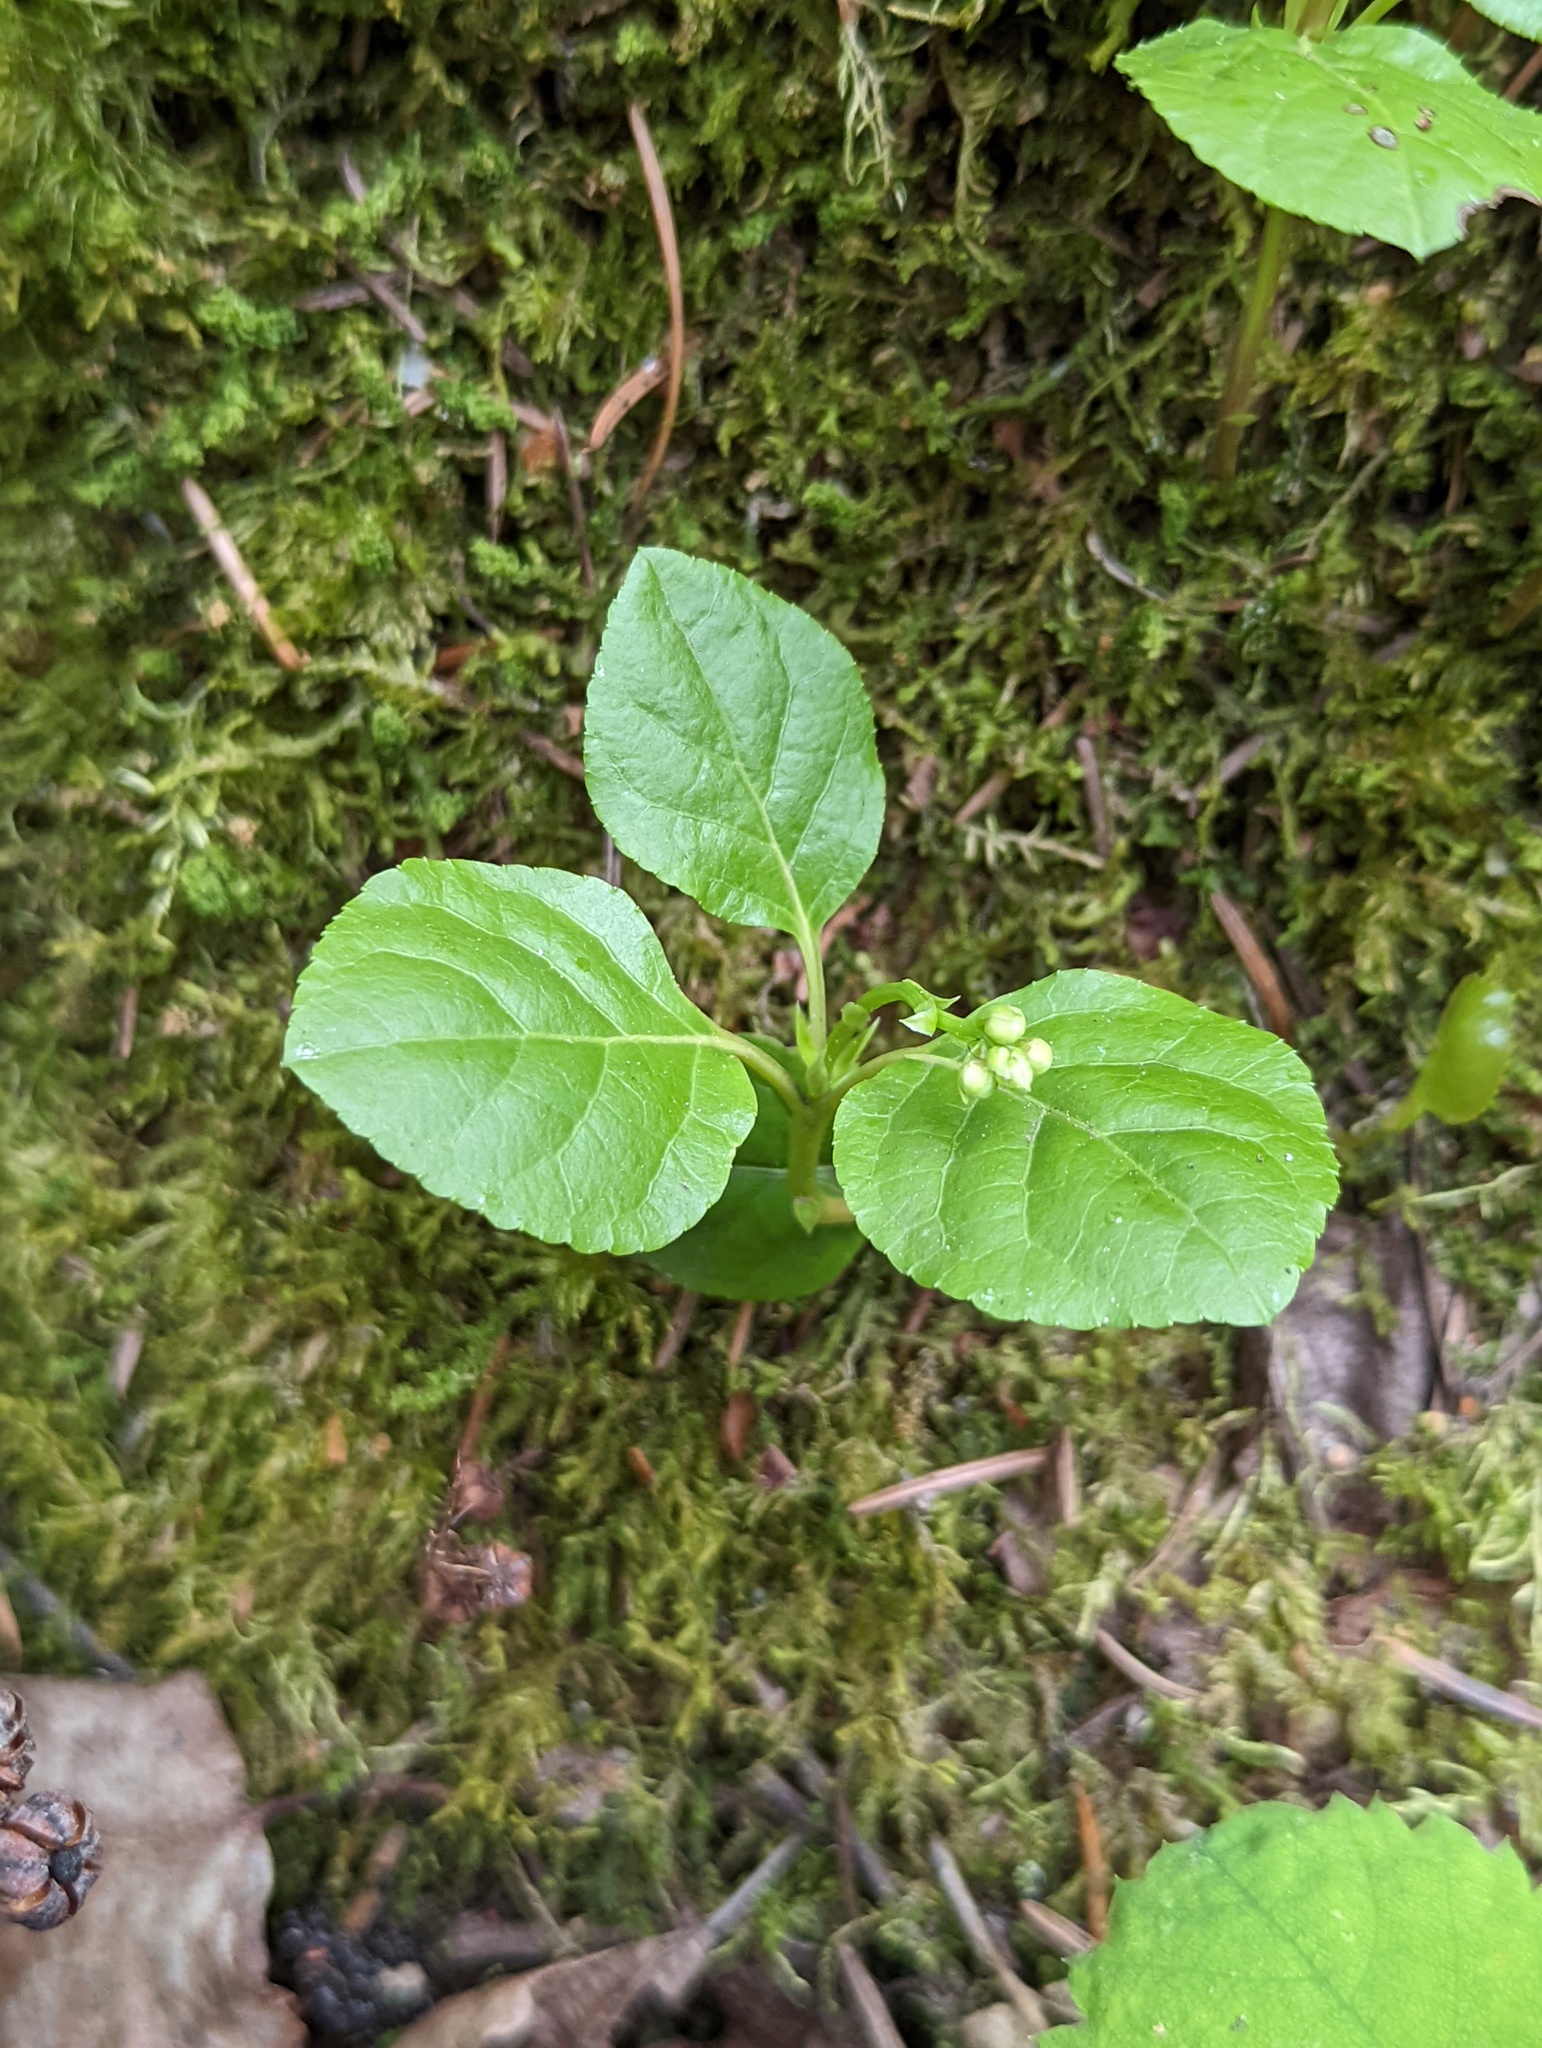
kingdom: Plantae
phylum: Tracheophyta
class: Magnoliopsida
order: Ericales
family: Ericaceae
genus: Orthilia
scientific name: Orthilia secunda
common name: One-sided orthilia
